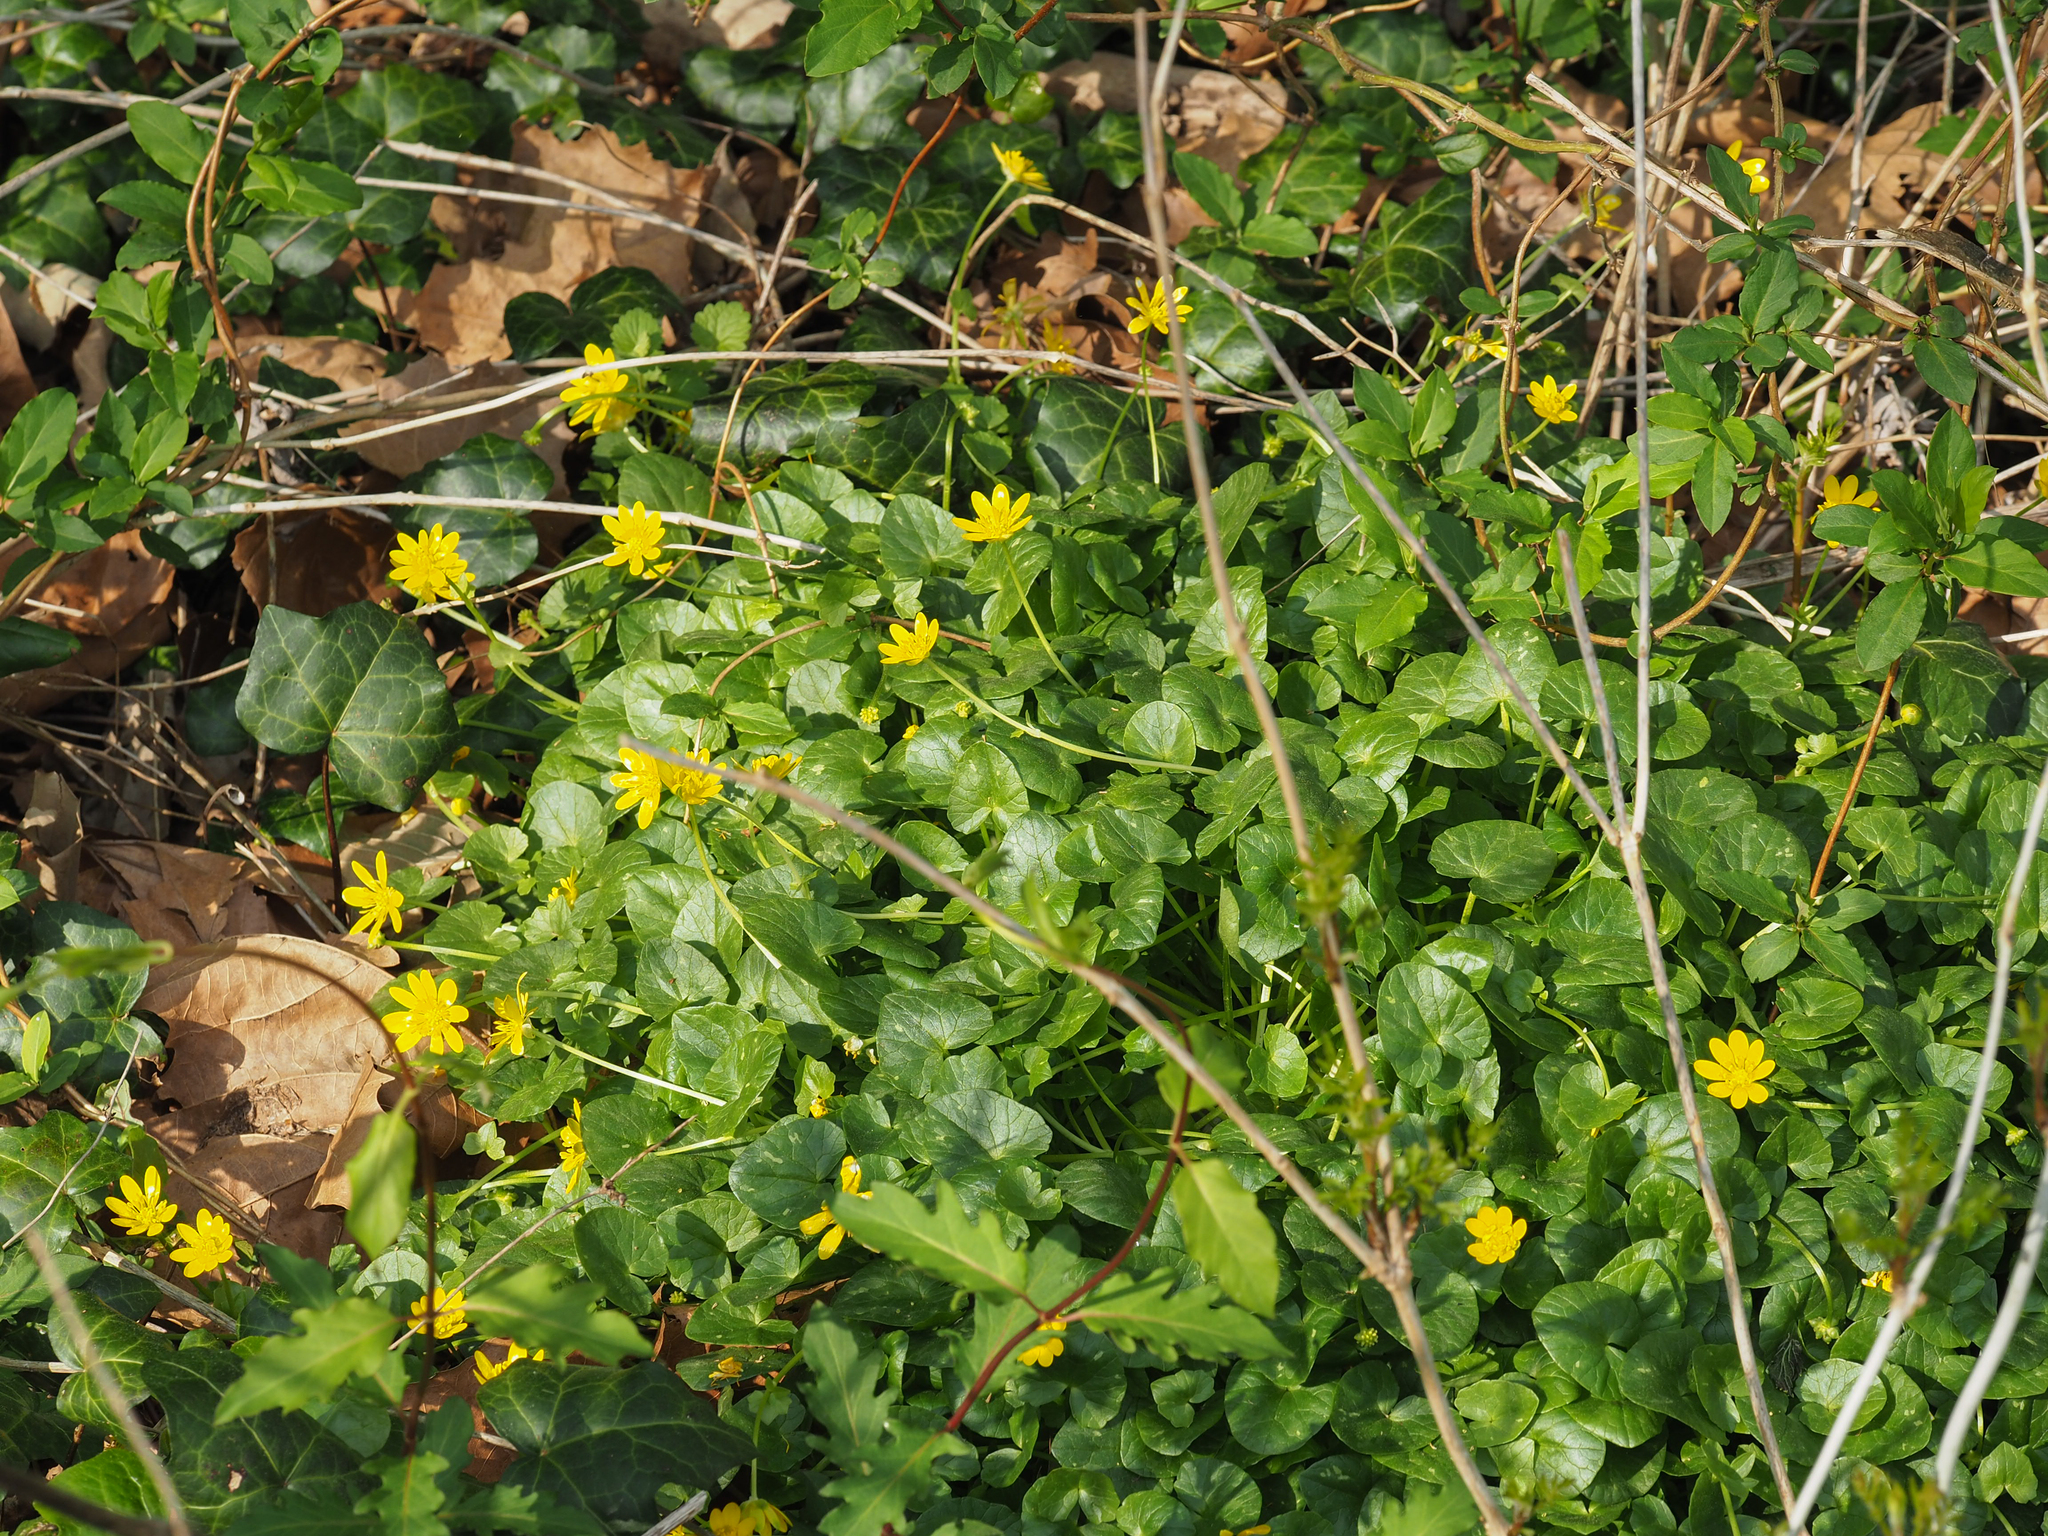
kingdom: Plantae
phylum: Tracheophyta
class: Magnoliopsida
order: Ranunculales
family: Ranunculaceae
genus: Ficaria
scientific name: Ficaria verna
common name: Lesser celandine
